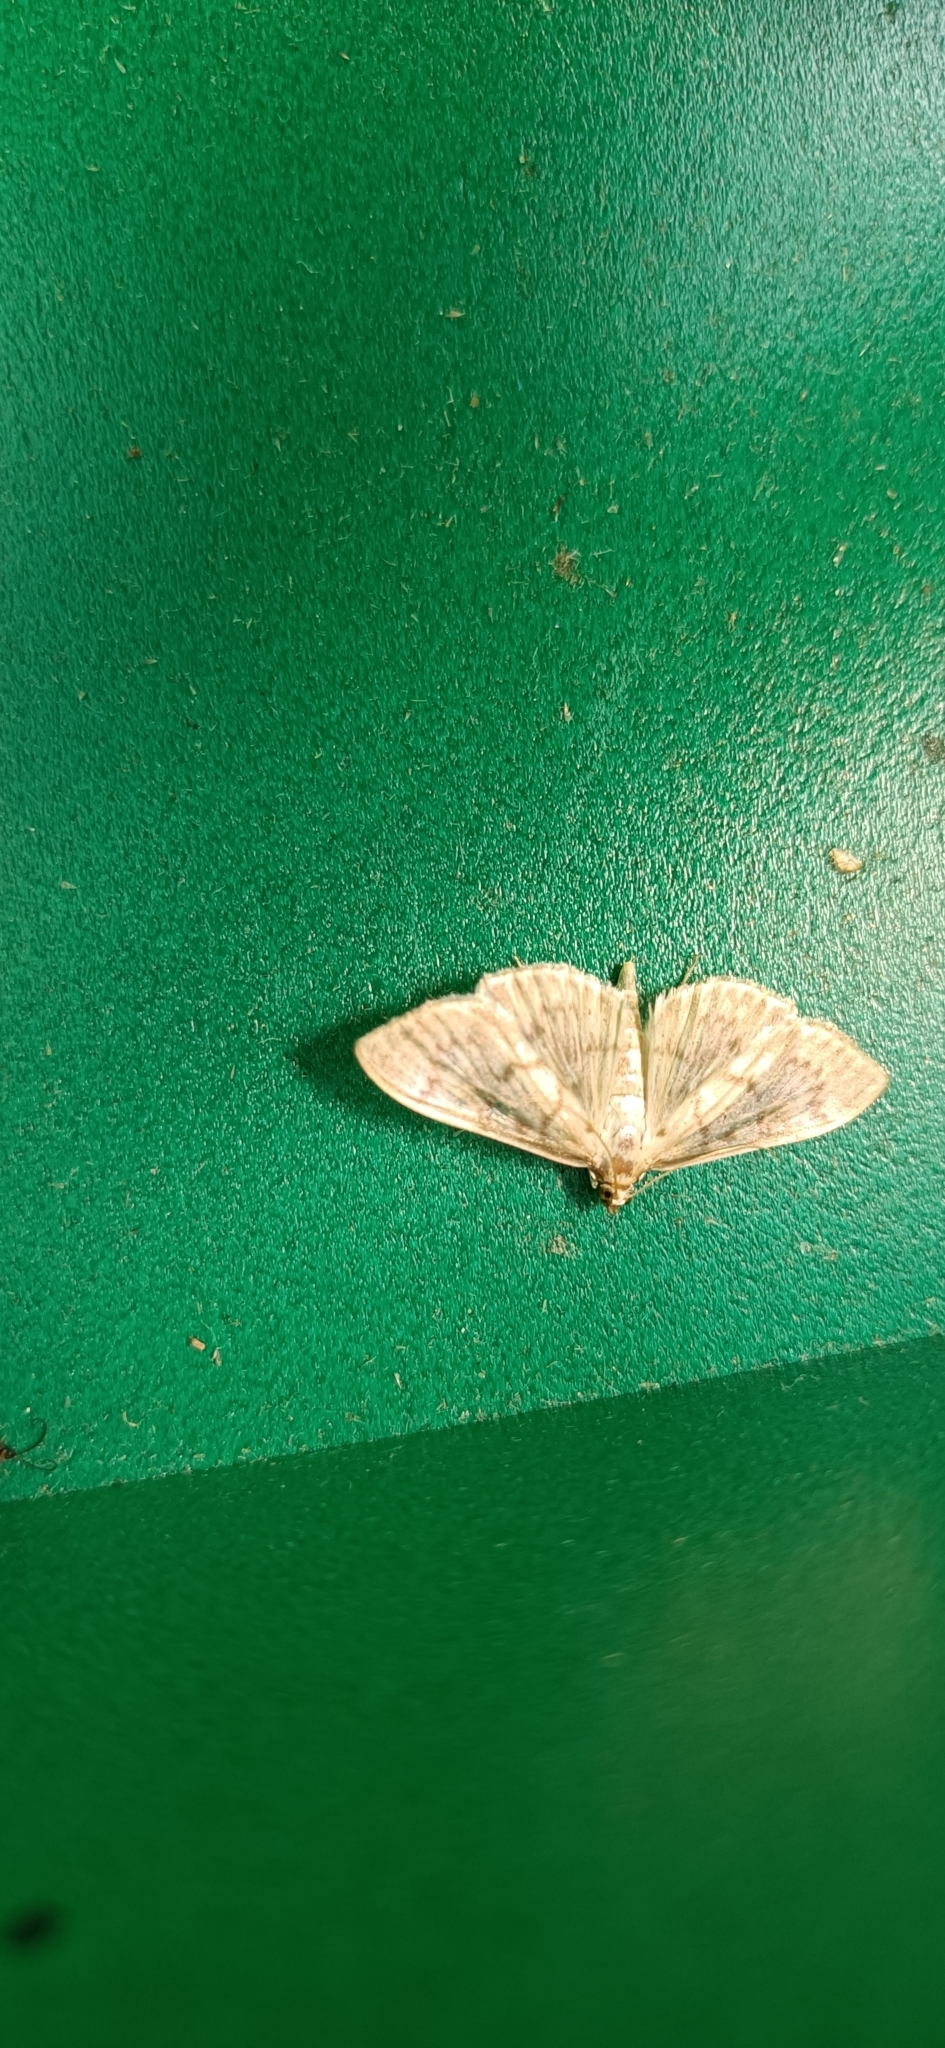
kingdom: Animalia
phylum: Arthropoda
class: Insecta
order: Lepidoptera
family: Crambidae
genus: Patania
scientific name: Patania ruralis
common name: Mother of pearl
